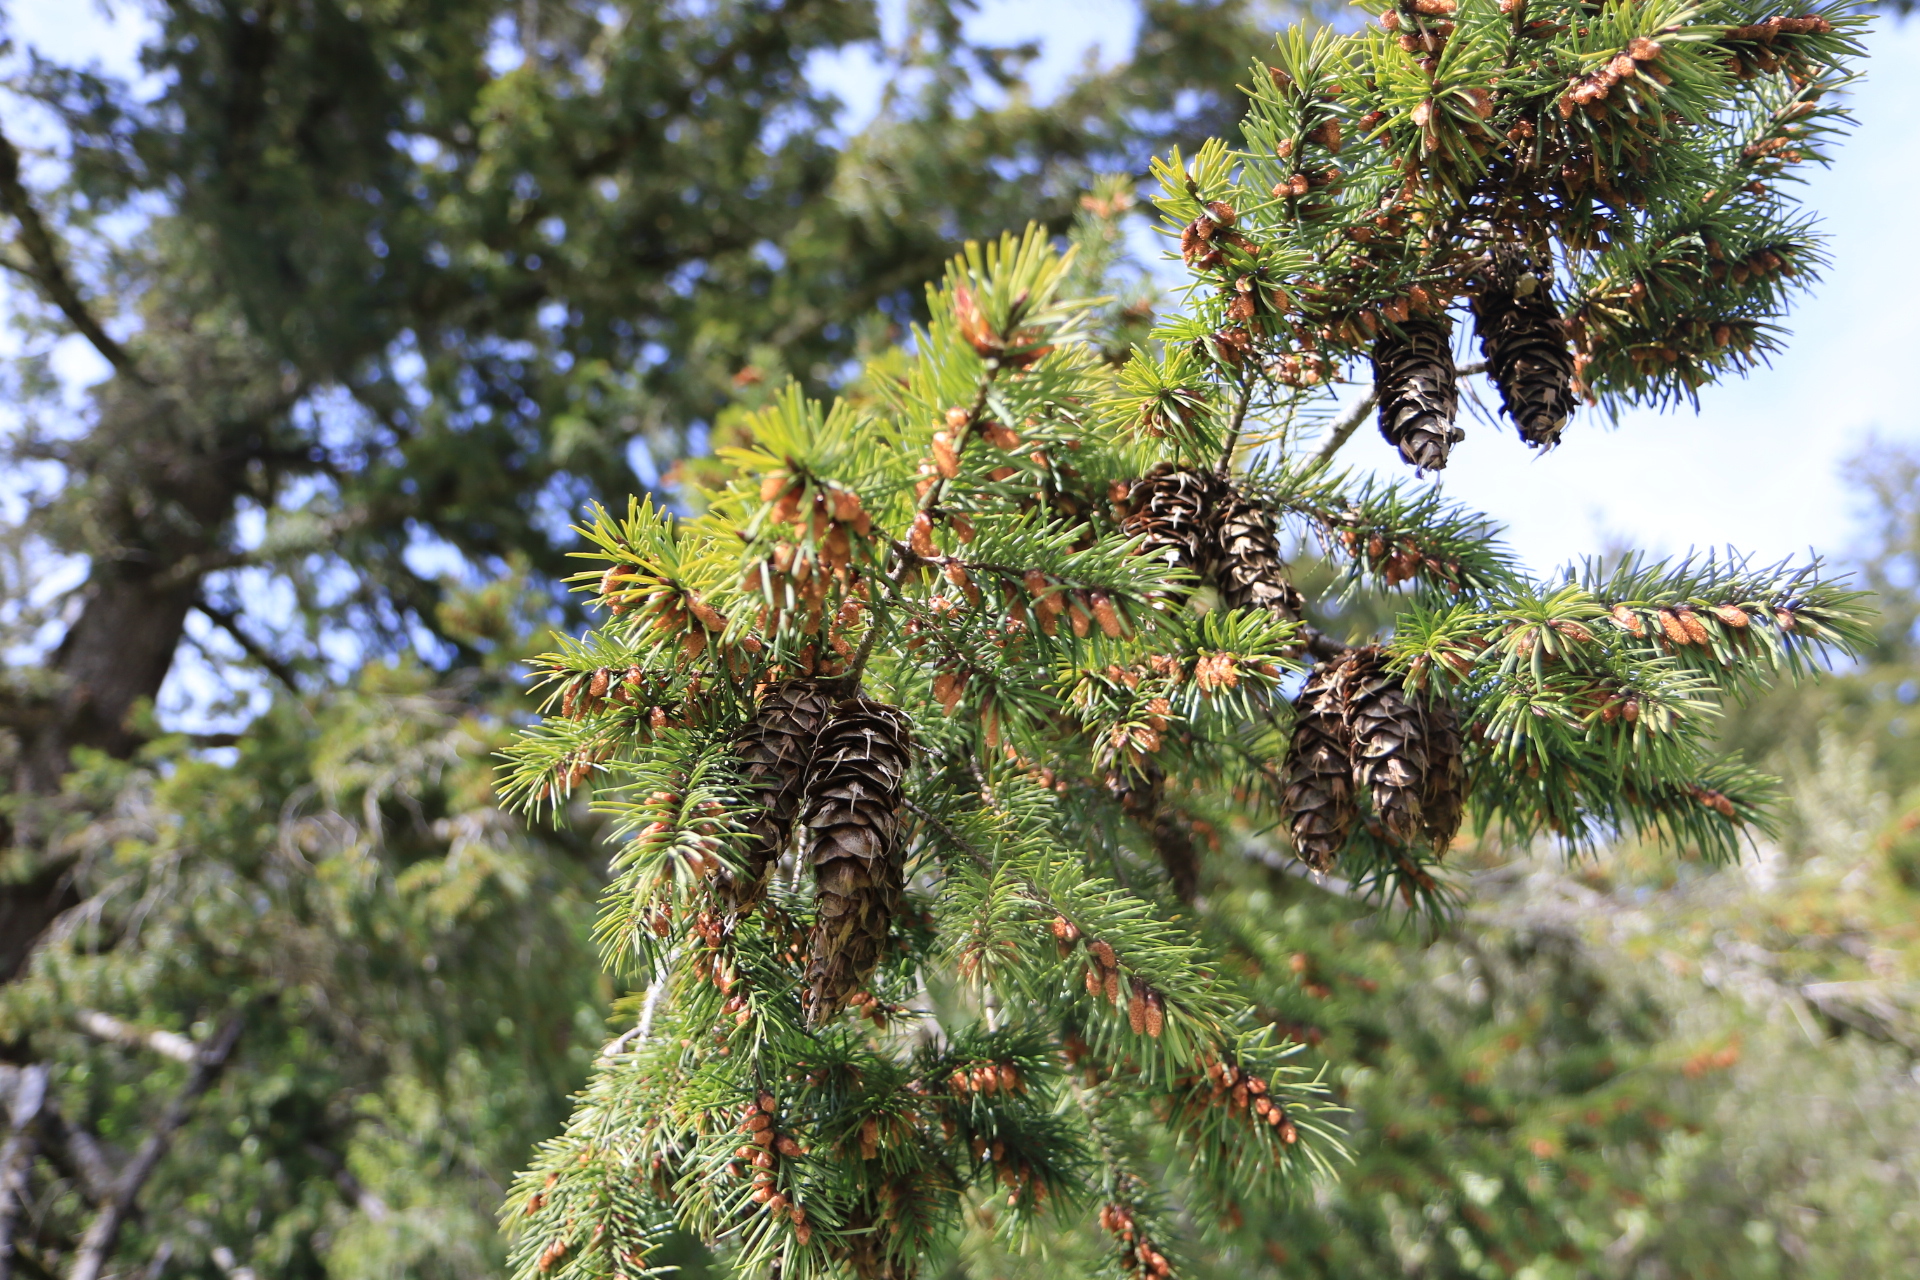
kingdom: Plantae
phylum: Tracheophyta
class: Pinopsida
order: Pinales
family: Pinaceae
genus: Pseudotsuga
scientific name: Pseudotsuga menziesii
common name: Douglas fir
